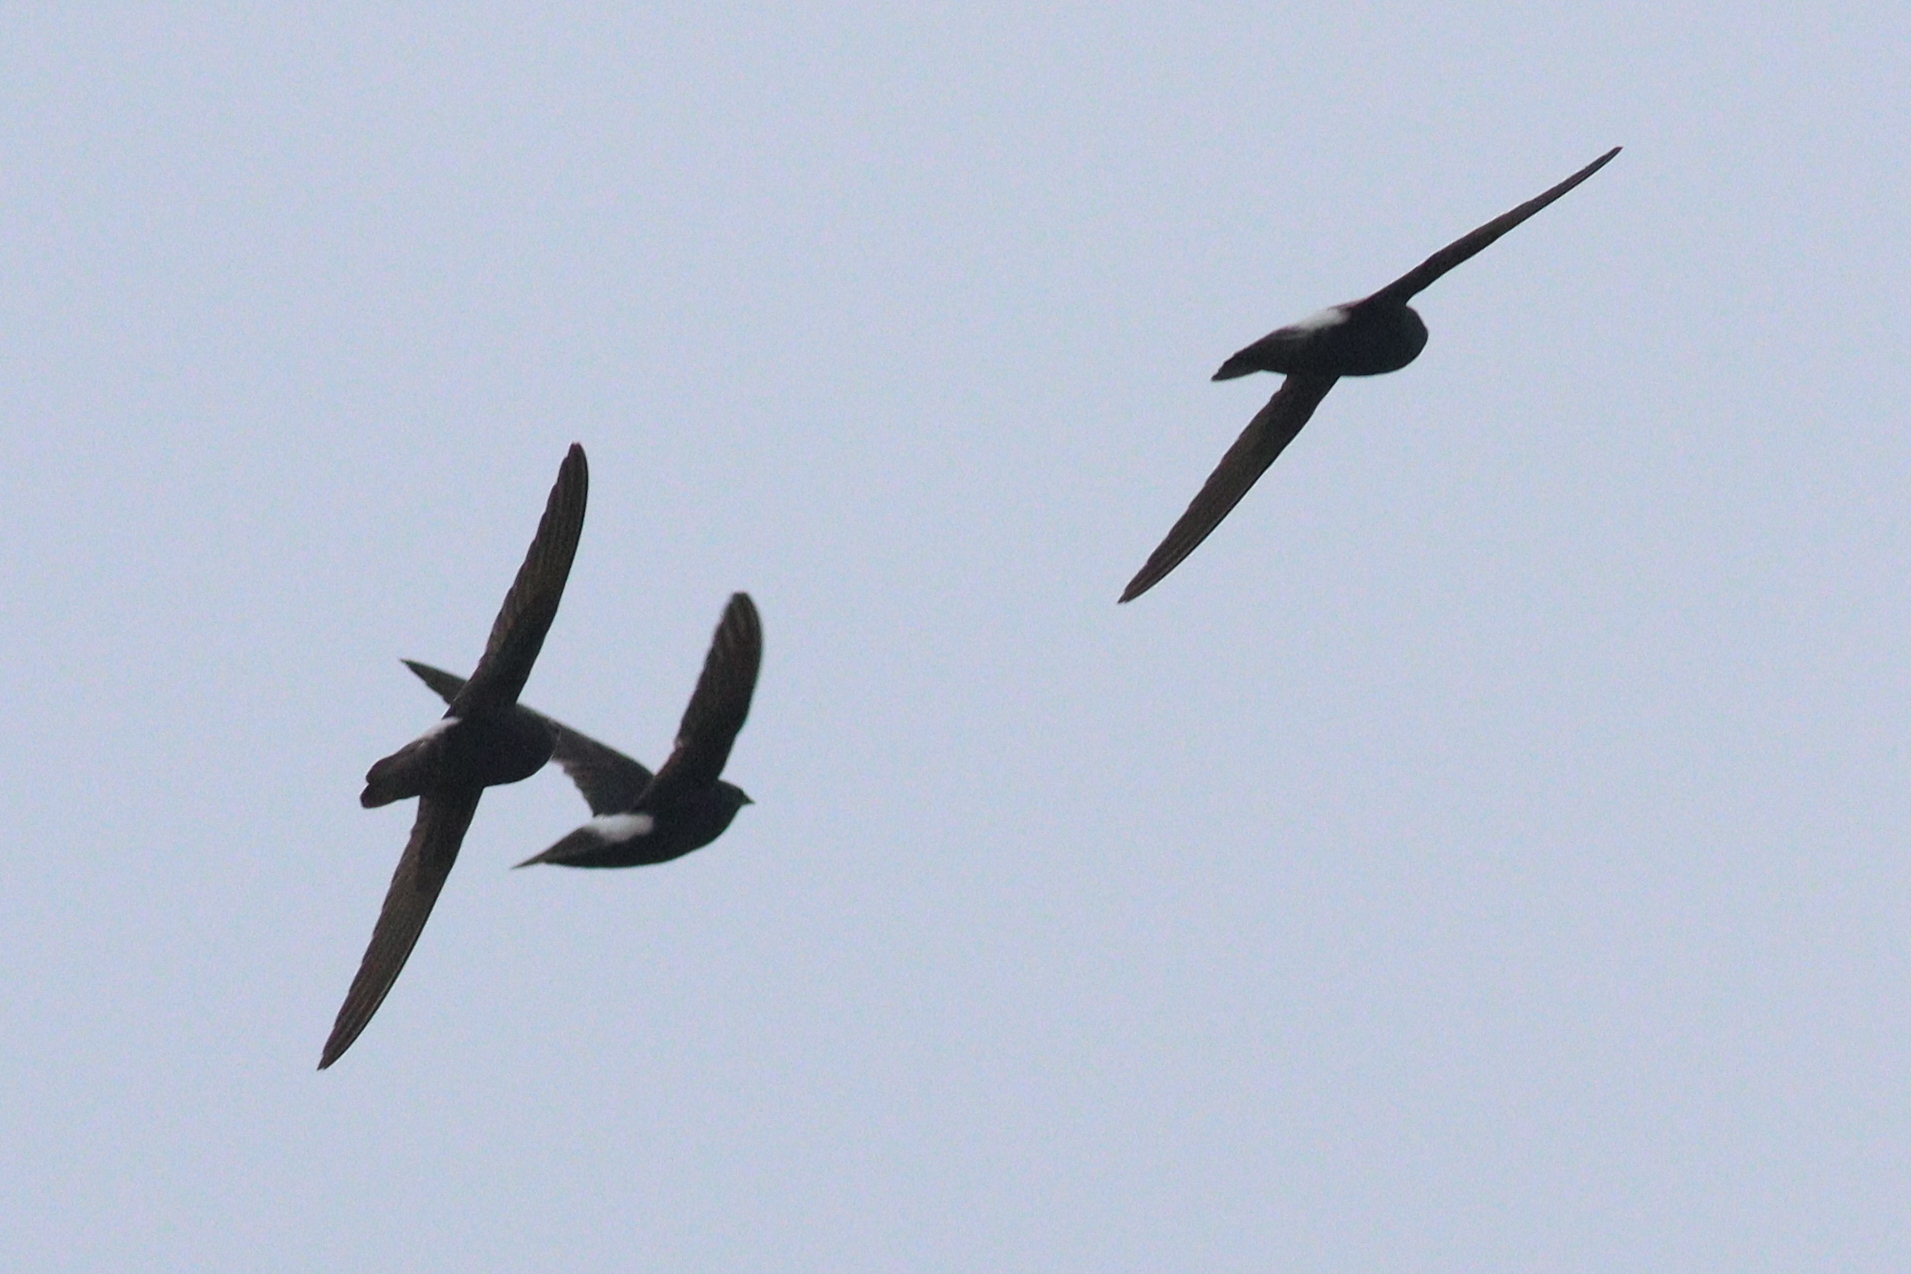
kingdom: Animalia
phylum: Chordata
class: Aves
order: Apodiformes
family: Apodidae
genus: Apus
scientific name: Apus affinis
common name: Little swift
